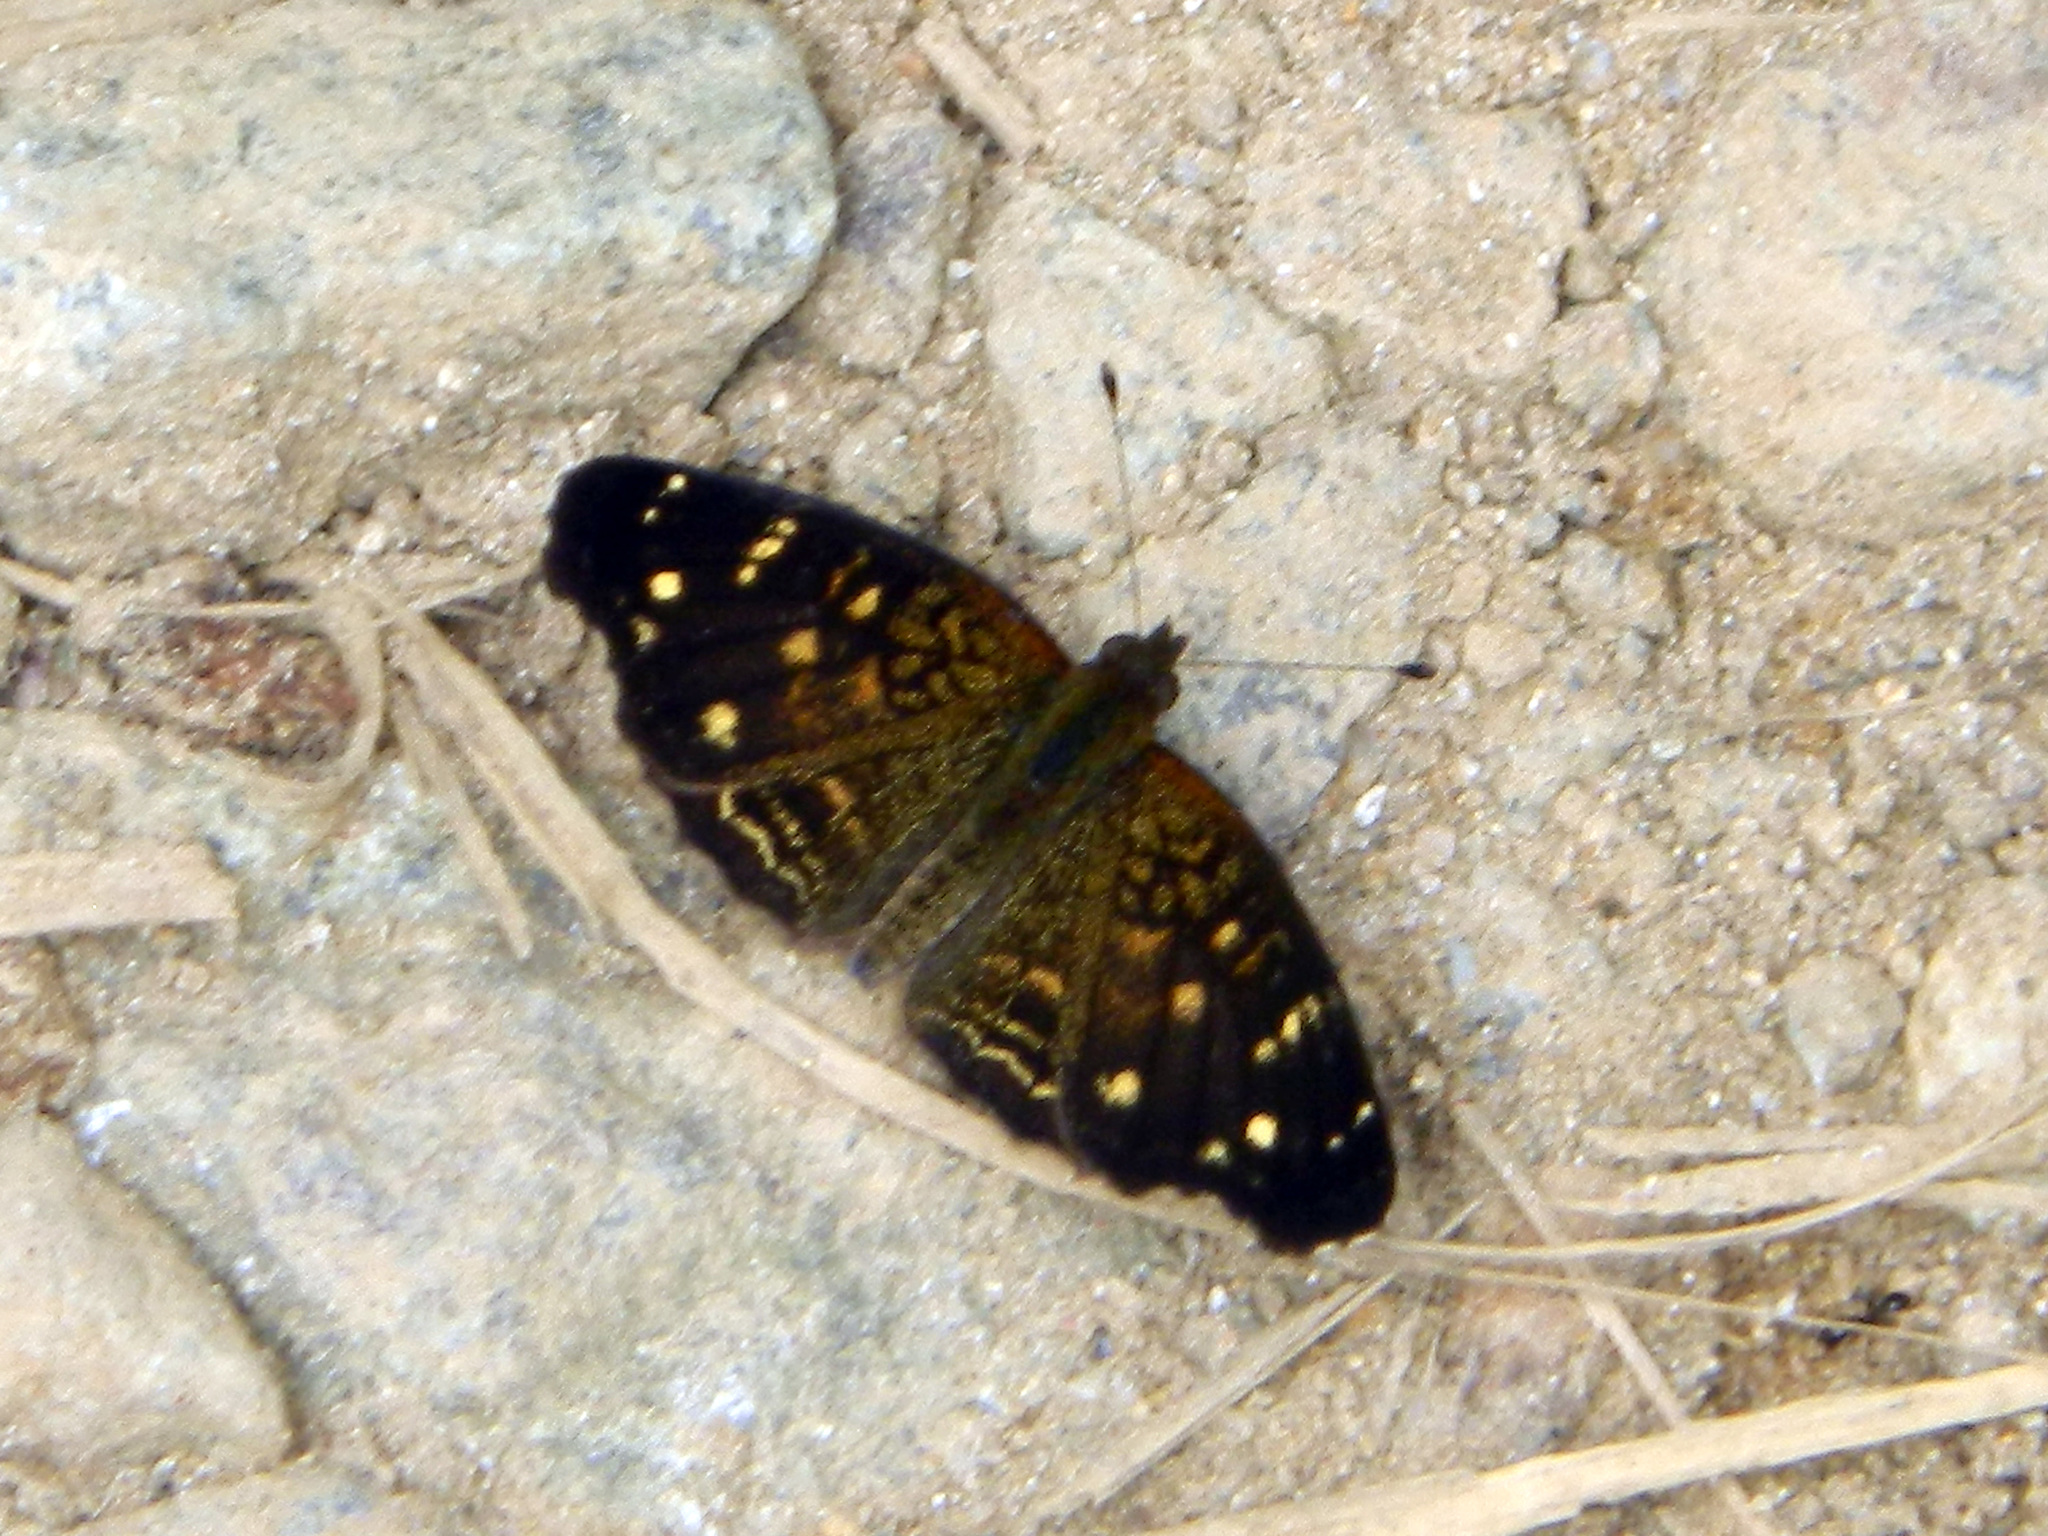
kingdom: Animalia
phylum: Arthropoda
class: Insecta
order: Lepidoptera
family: Nymphalidae
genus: Anthanassa
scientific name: Anthanassa atronia
